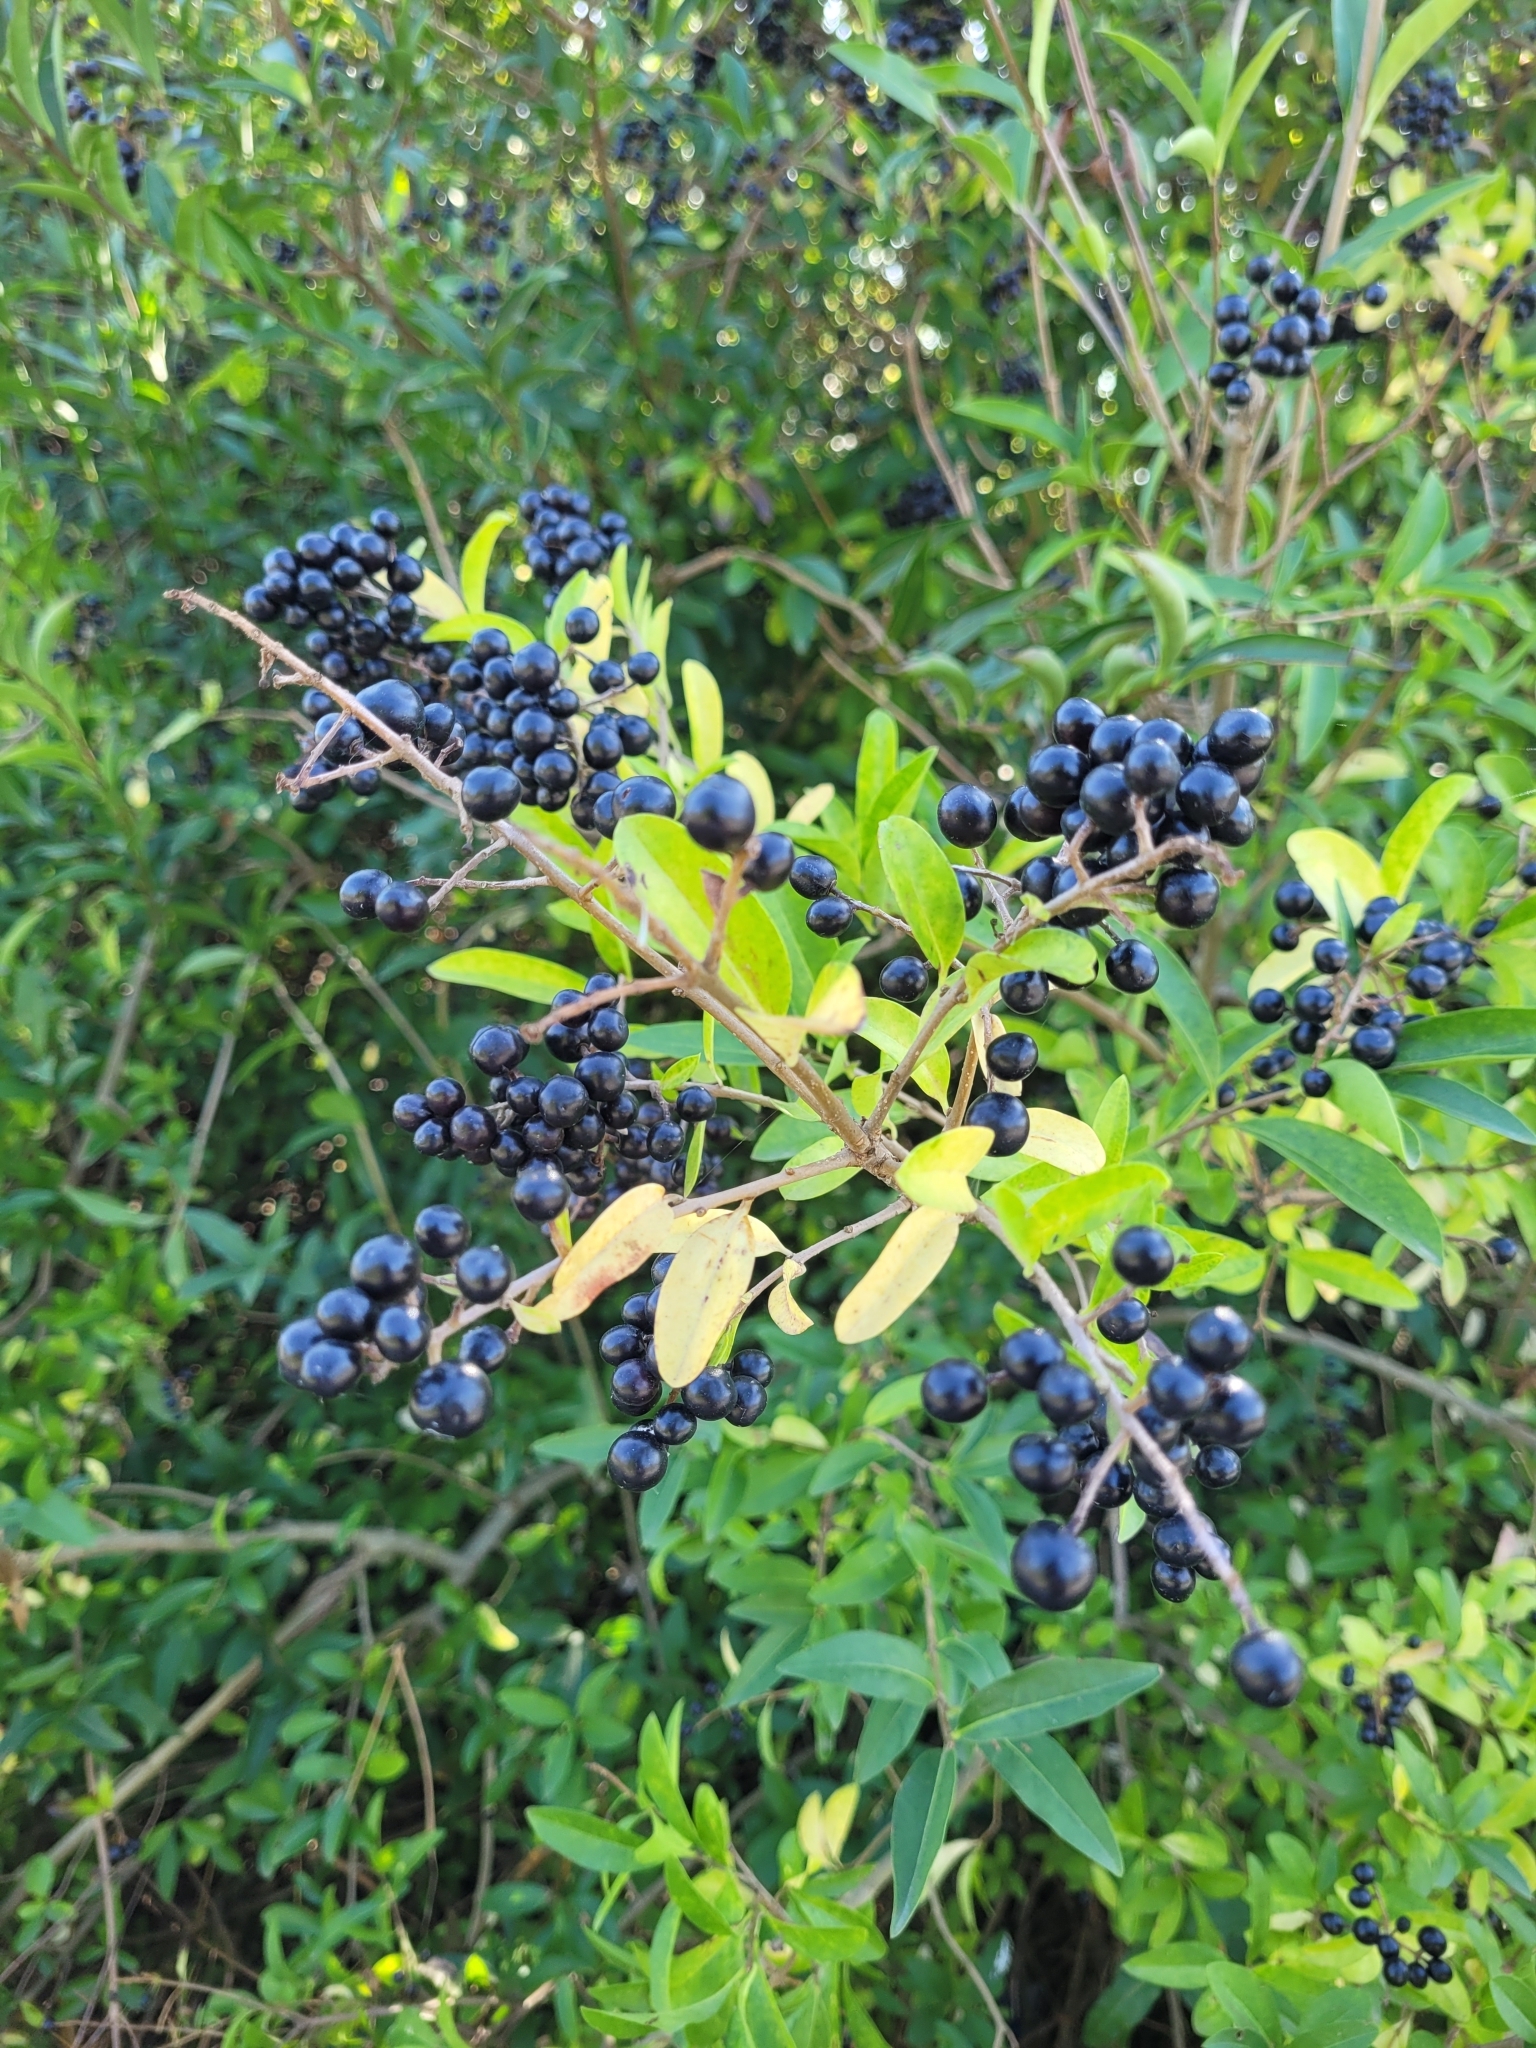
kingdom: Plantae
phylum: Tracheophyta
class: Magnoliopsida
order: Lamiales
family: Oleaceae
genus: Ligustrum
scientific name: Ligustrum vulgare
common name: Wild privet
